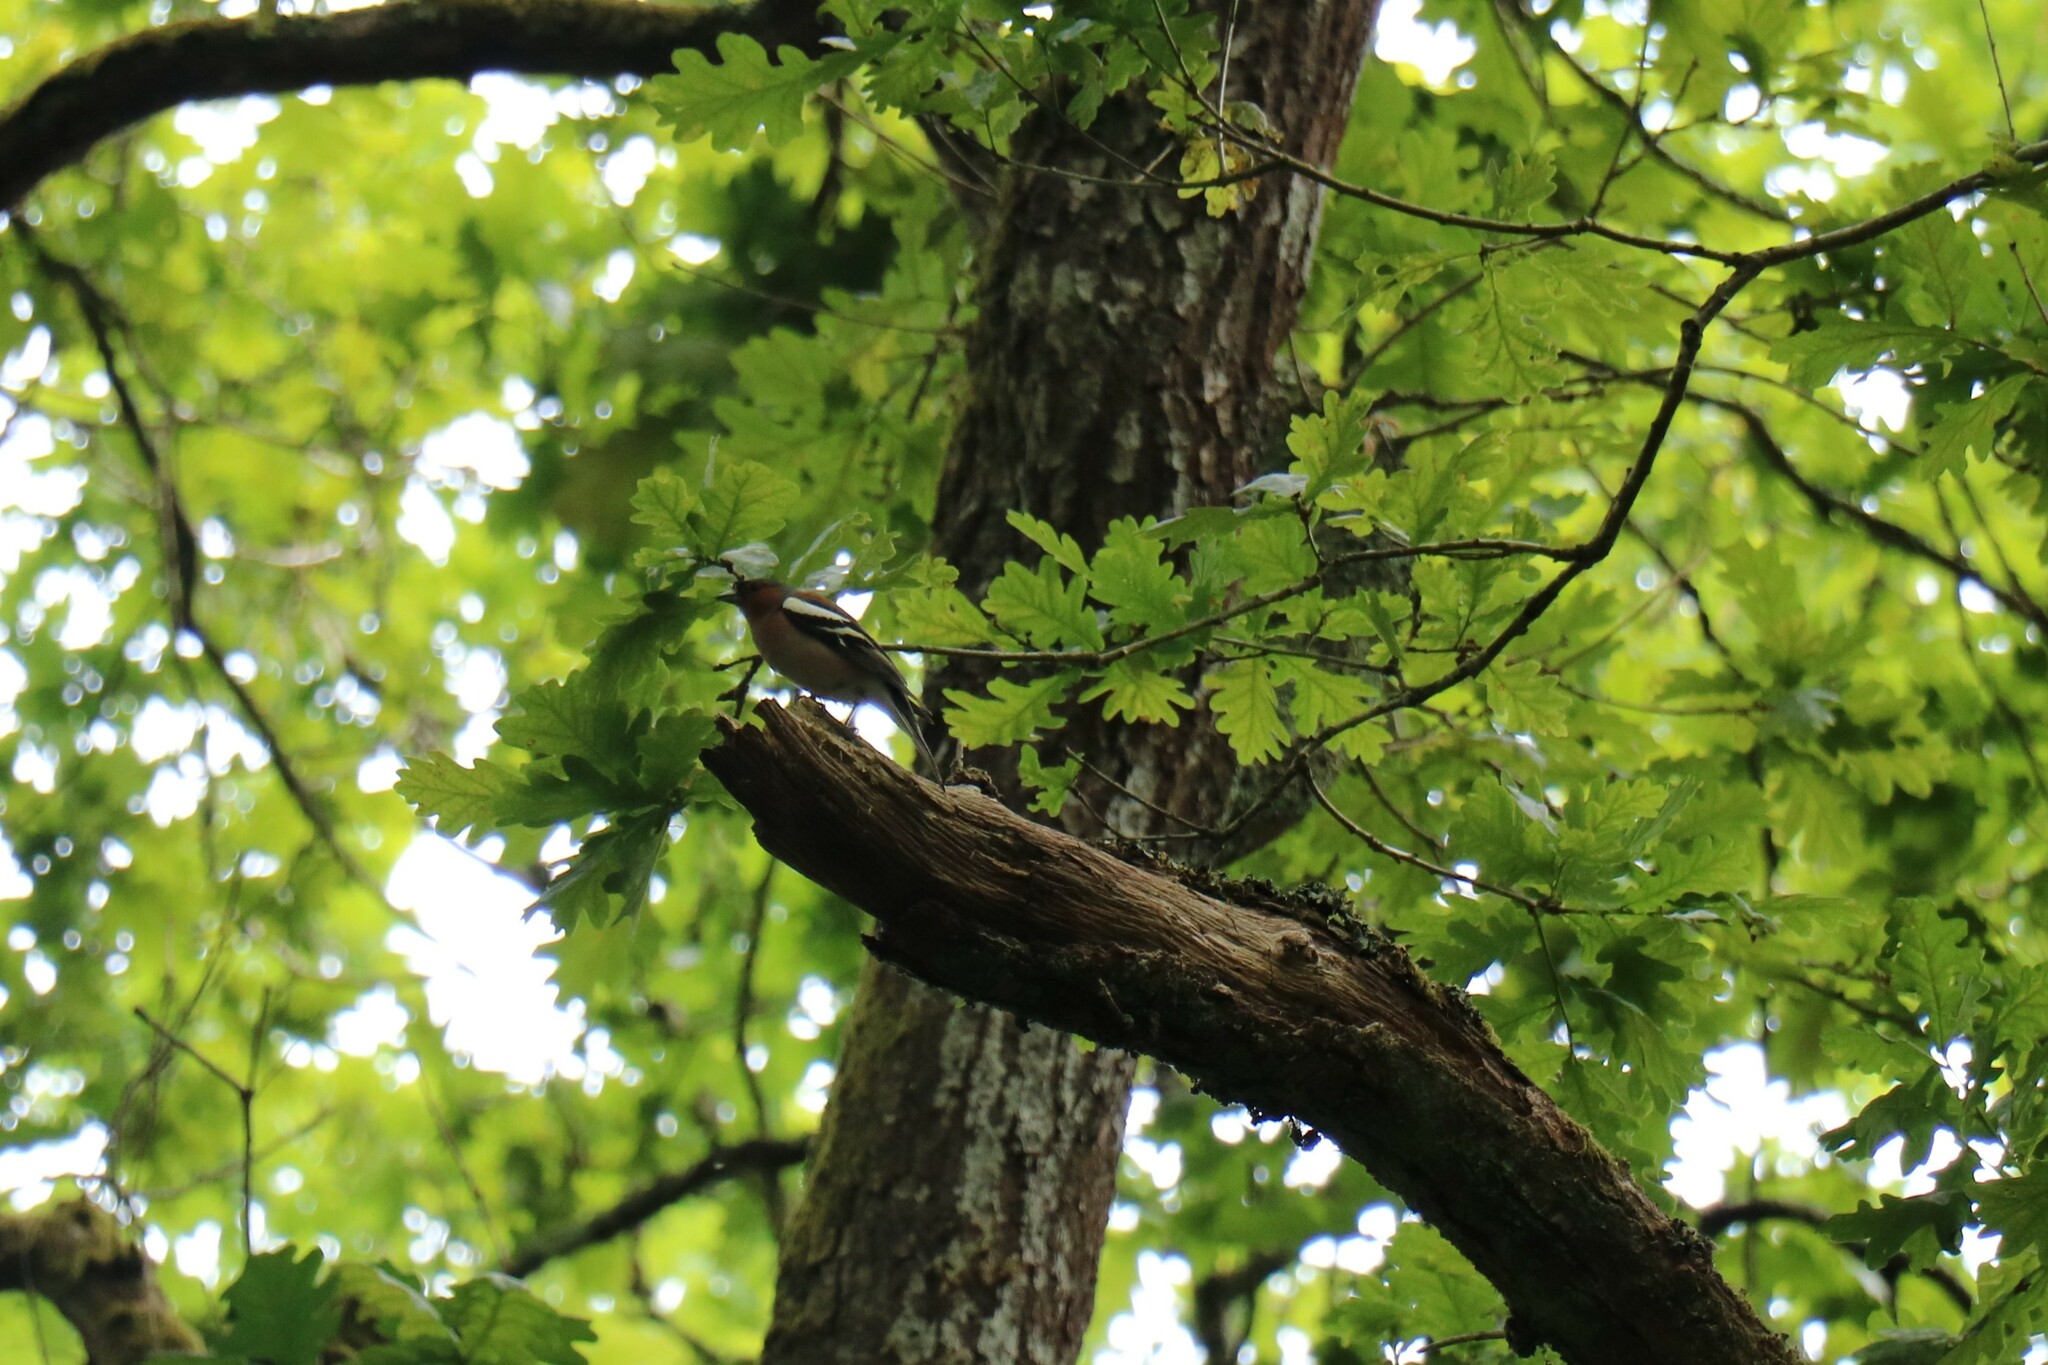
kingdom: Animalia
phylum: Chordata
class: Aves
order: Passeriformes
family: Fringillidae
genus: Fringilla
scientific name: Fringilla coelebs
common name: Common chaffinch
